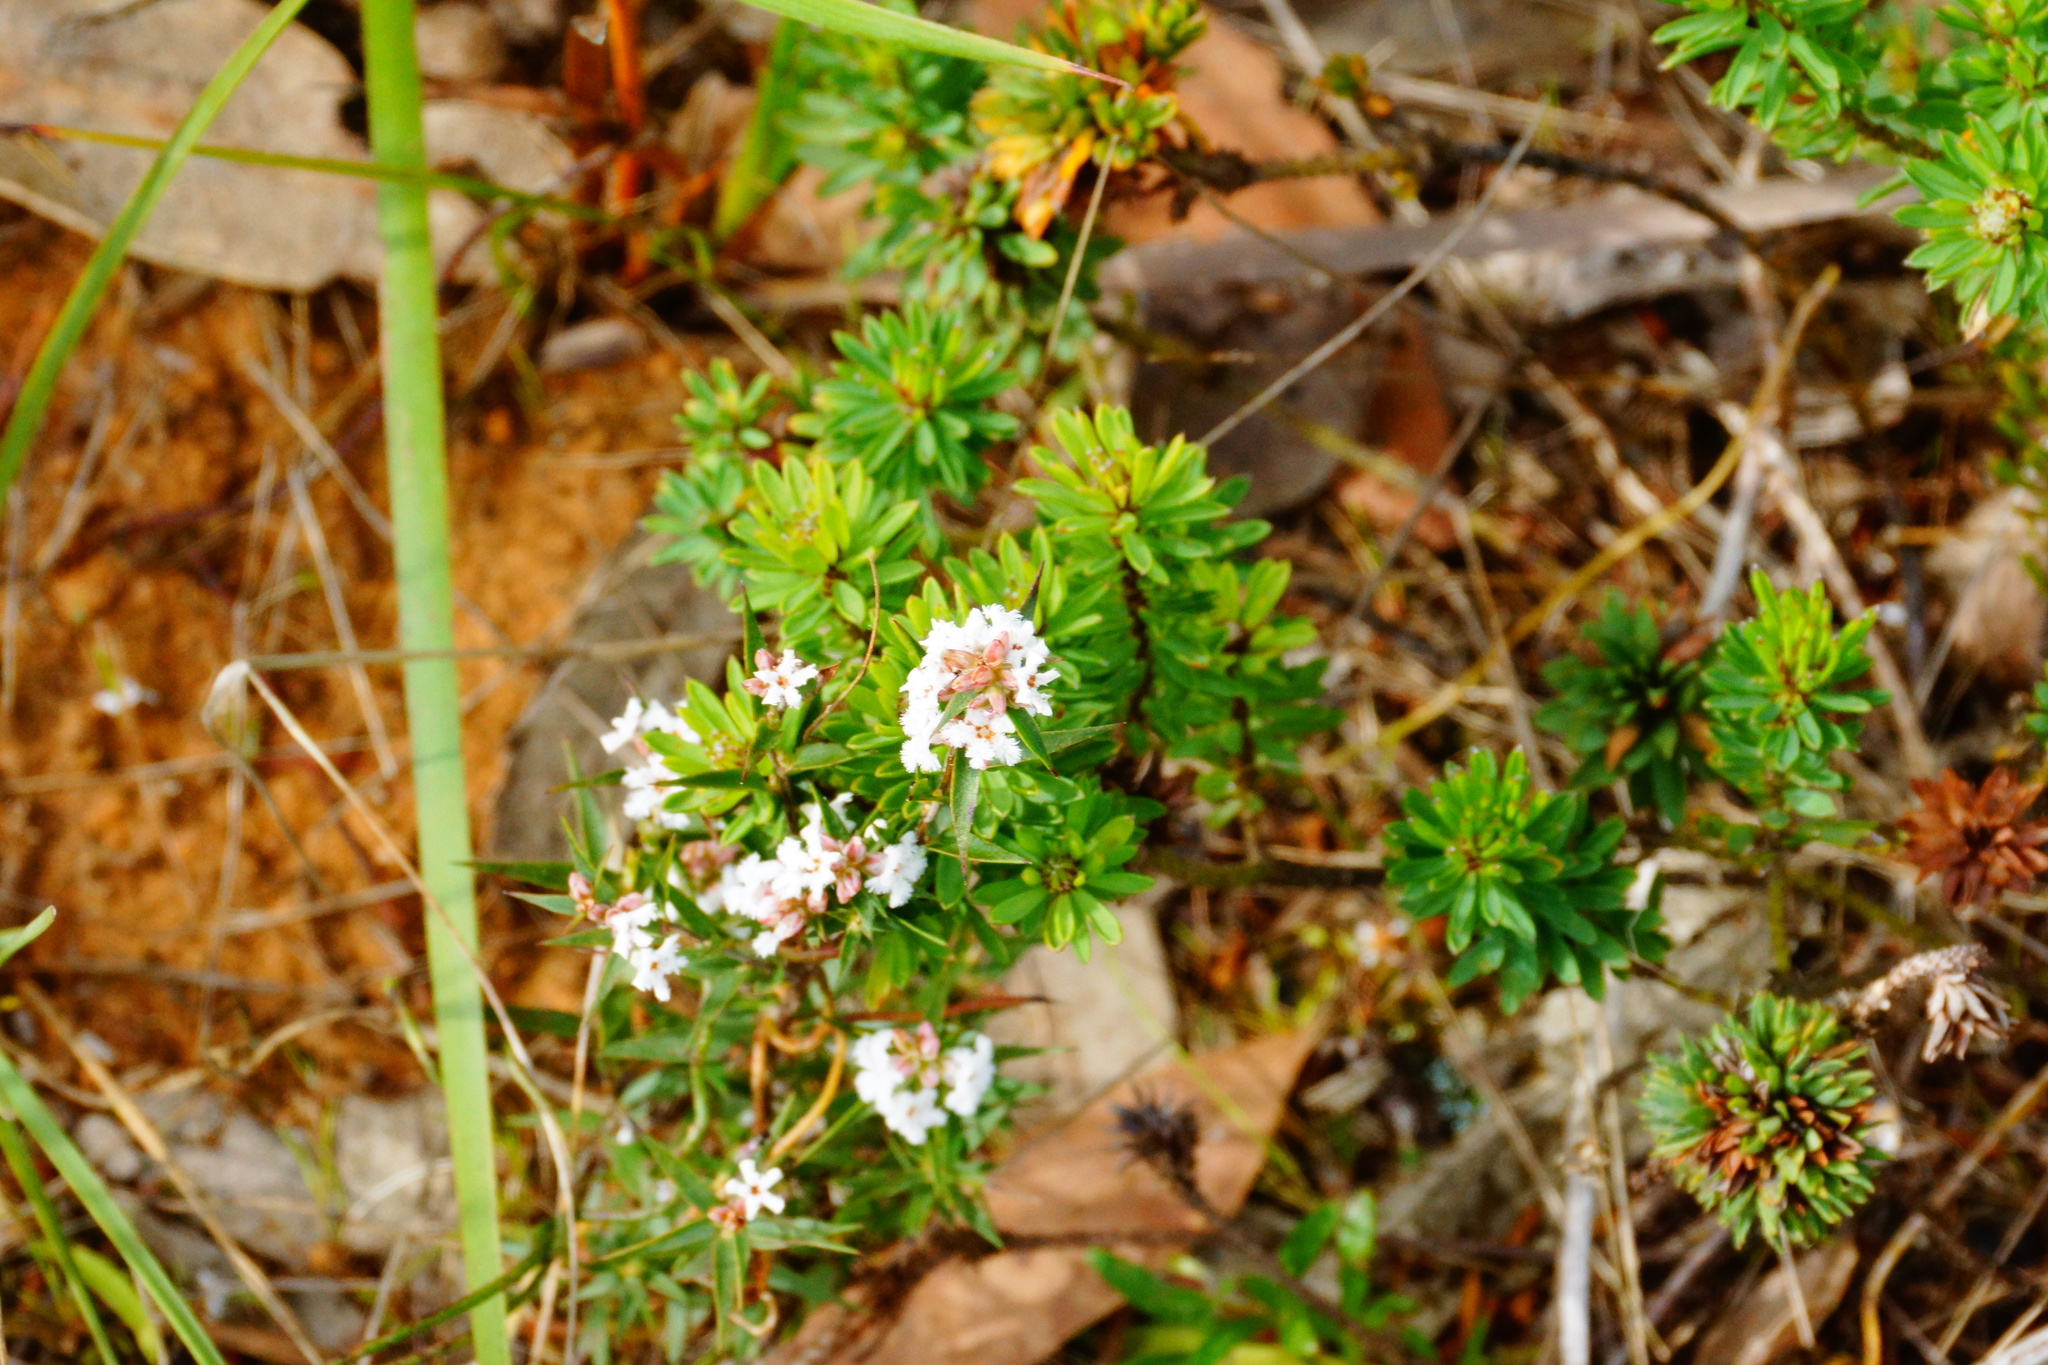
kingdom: Plantae
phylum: Tracheophyta
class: Magnoliopsida
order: Ericales
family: Ericaceae
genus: Leucopogon
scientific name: Leucopogon virgatus
